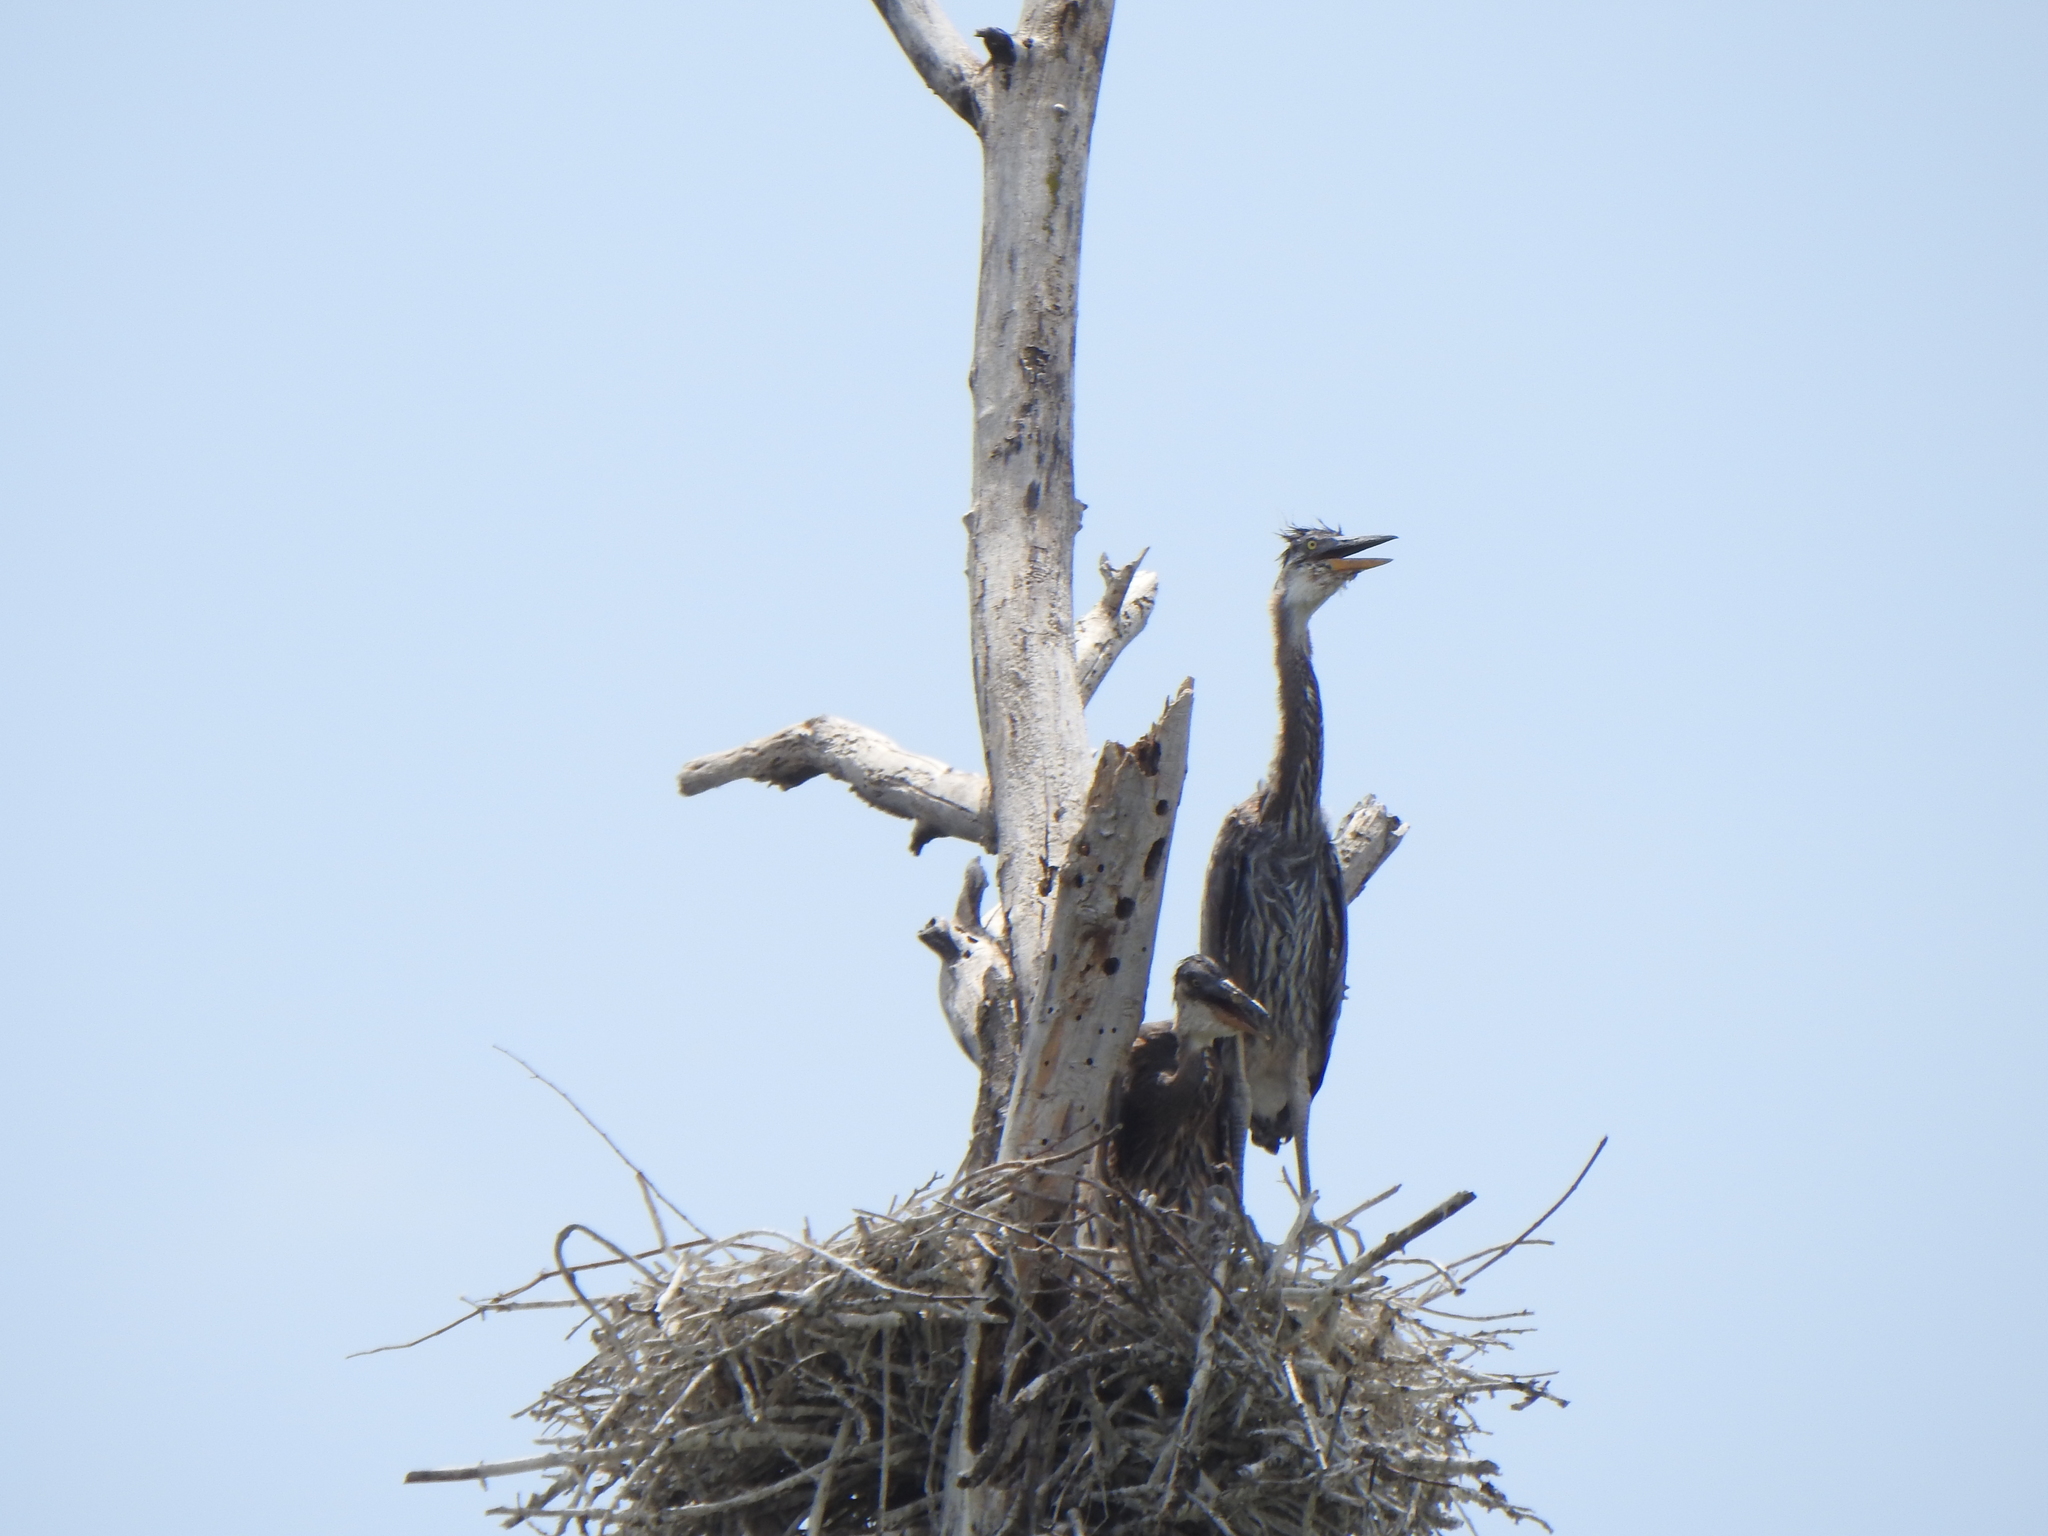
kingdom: Animalia
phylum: Chordata
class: Aves
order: Pelecaniformes
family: Ardeidae
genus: Ardea
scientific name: Ardea herodias
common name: Great blue heron
